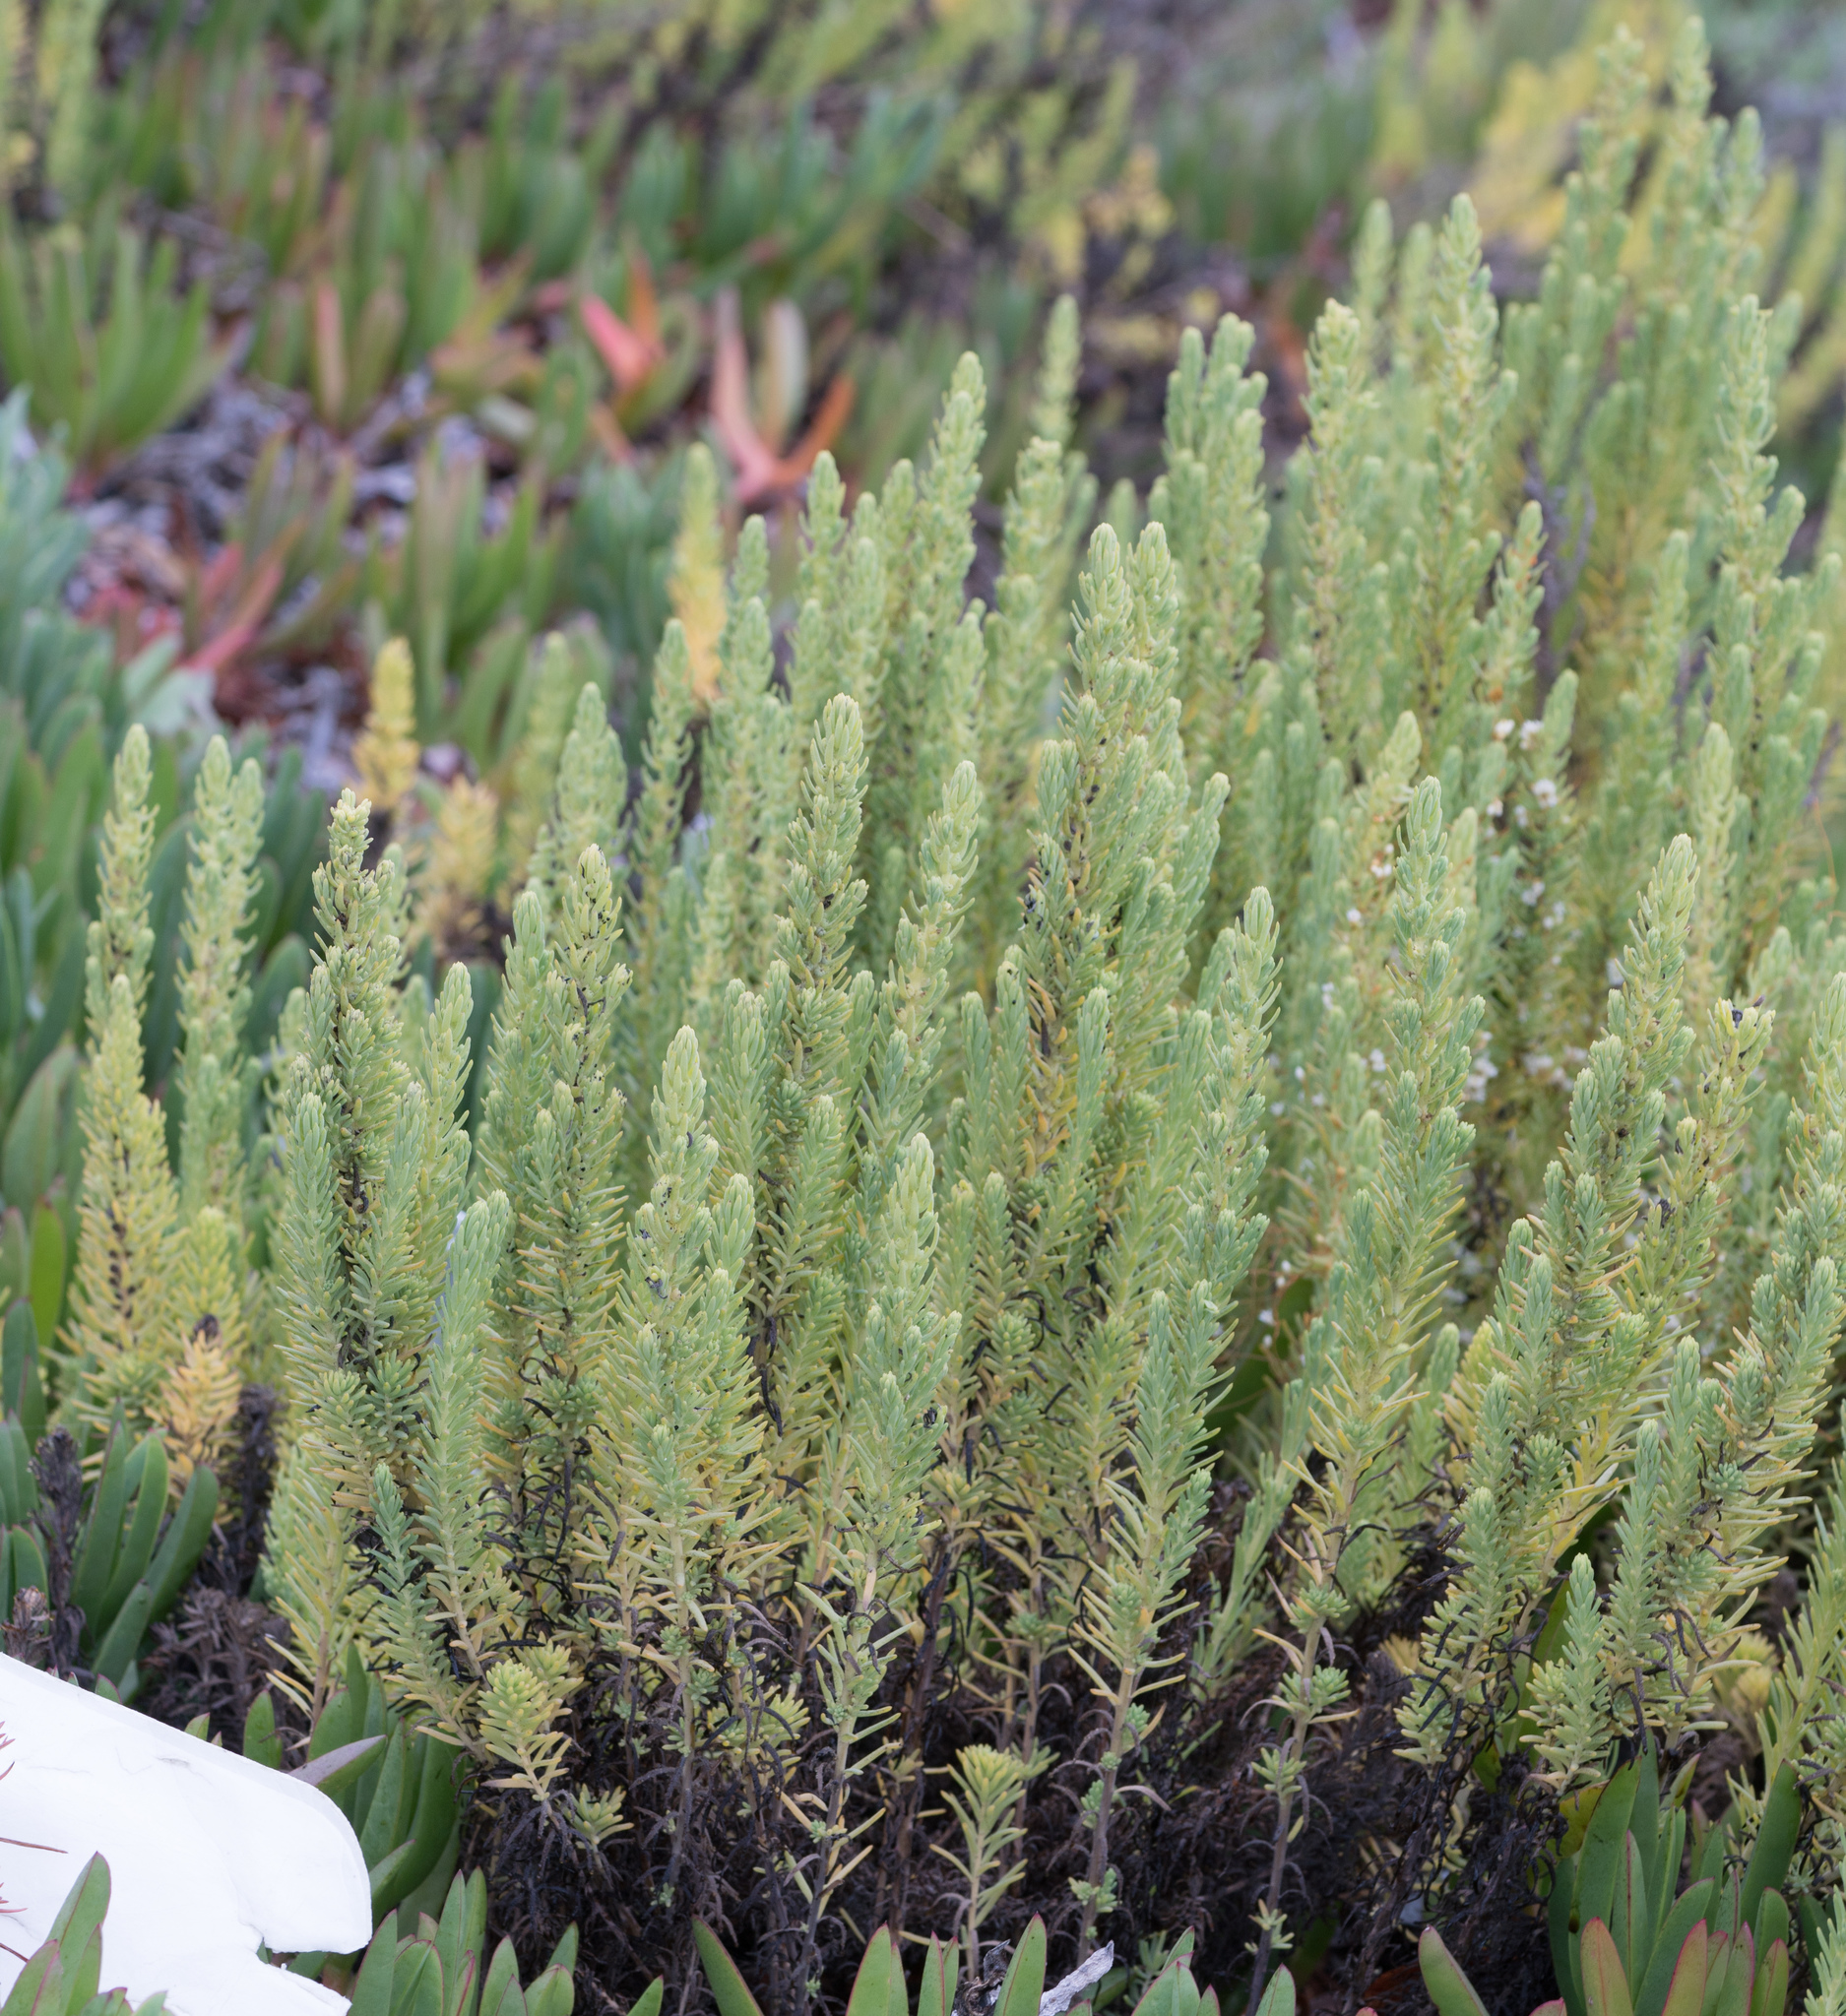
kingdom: Plantae
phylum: Tracheophyta
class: Magnoliopsida
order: Caryophyllales
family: Amaranthaceae
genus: Suaeda
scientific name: Suaeda californica
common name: California sea-blite
